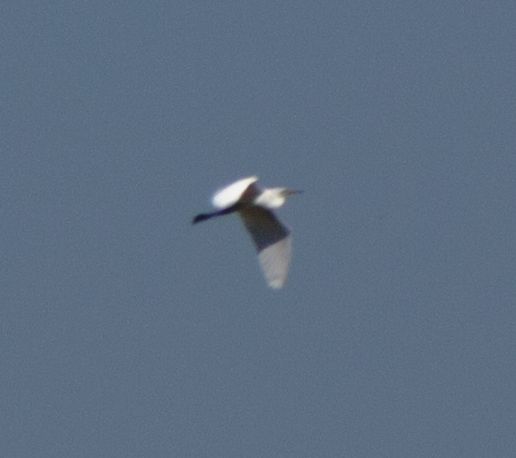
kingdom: Animalia
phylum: Chordata
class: Aves
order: Pelecaniformes
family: Ardeidae
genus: Ardea
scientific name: Ardea alba
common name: Great egret
